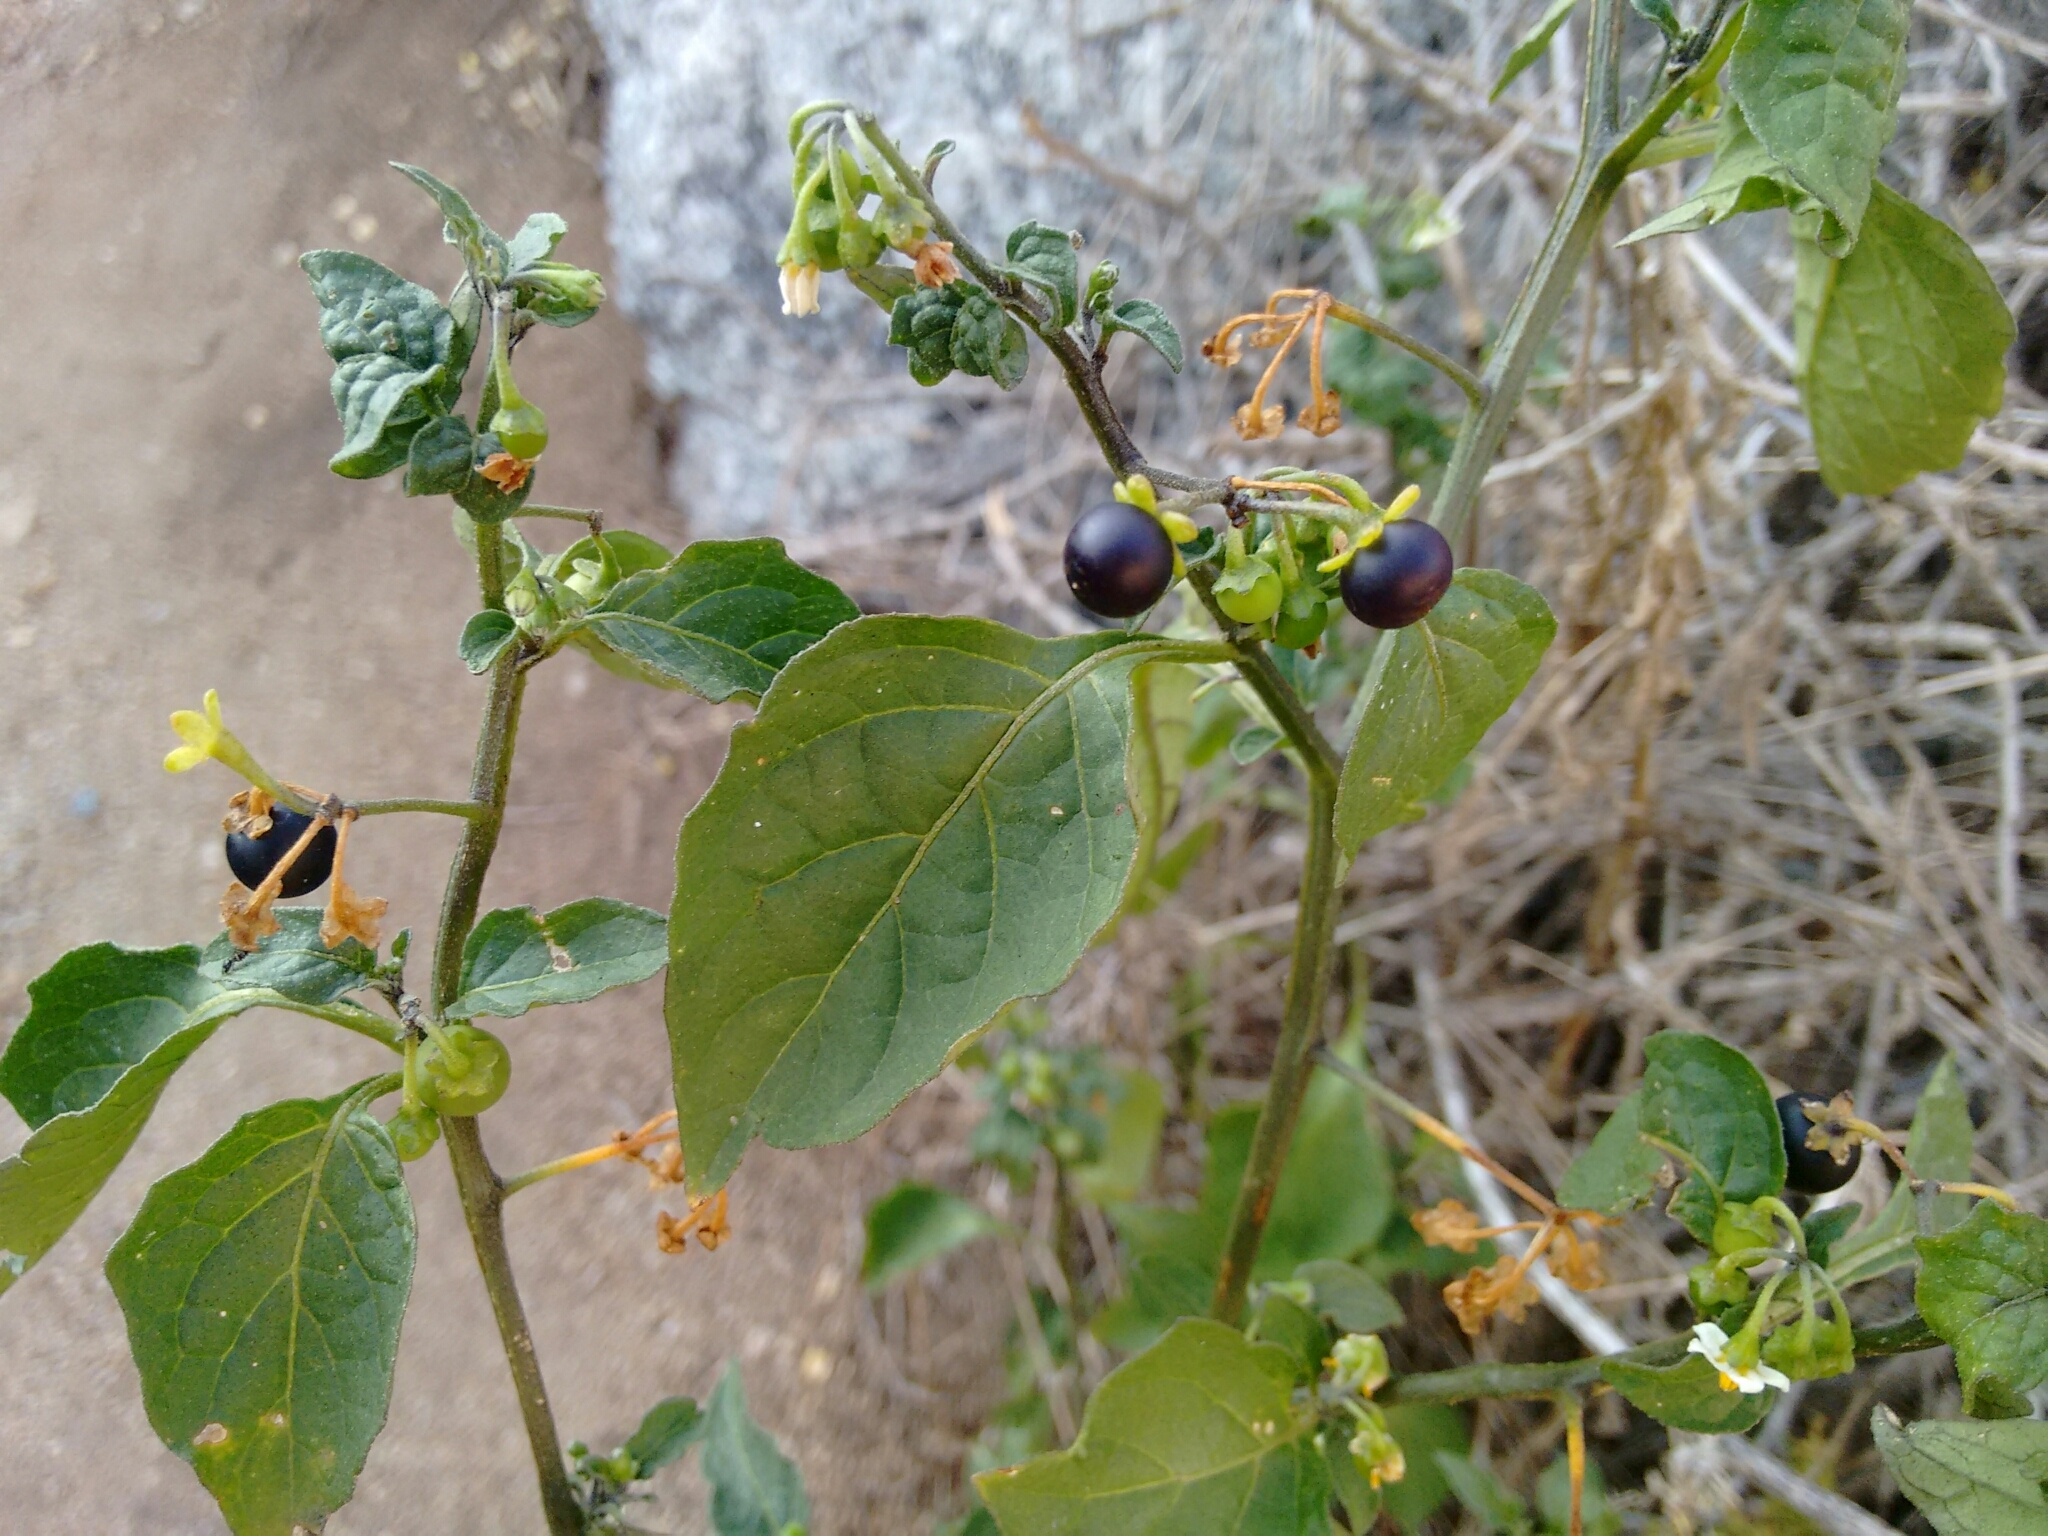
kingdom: Plantae
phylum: Tracheophyta
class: Magnoliopsida
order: Solanales
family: Solanaceae
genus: Solanum
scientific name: Solanum nigrum
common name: Black nightshade
